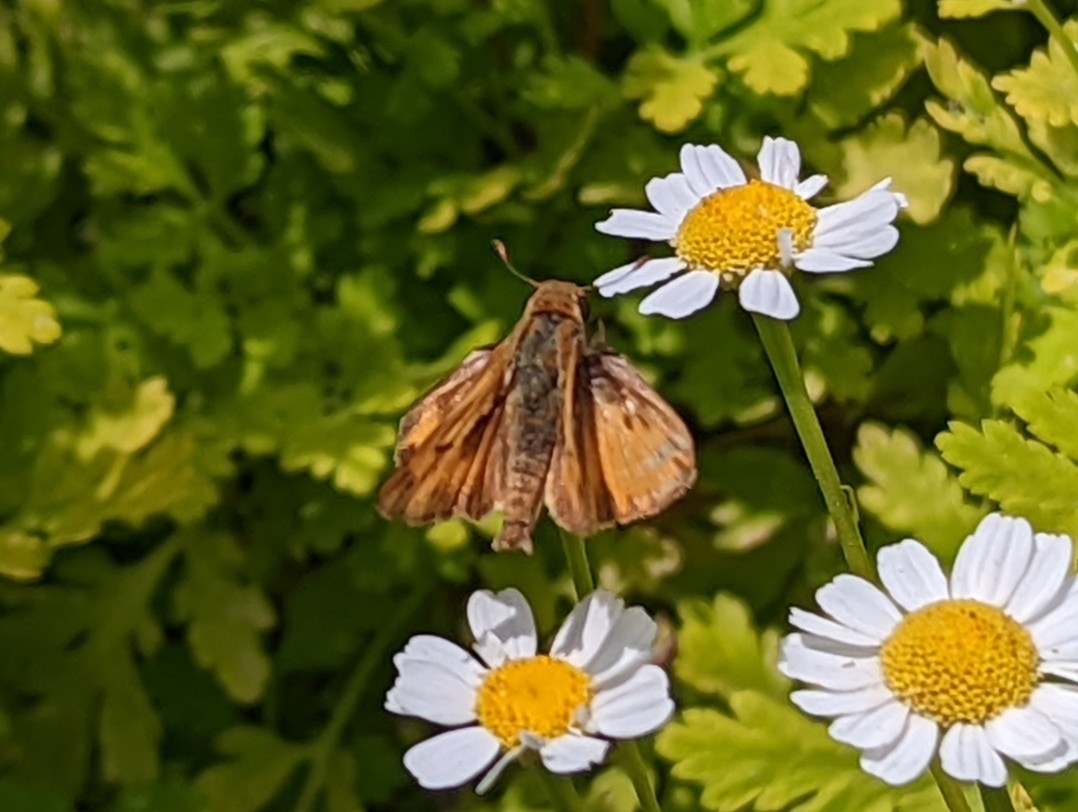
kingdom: Animalia
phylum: Arthropoda
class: Insecta
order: Lepidoptera
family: Hesperiidae
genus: Hylephila
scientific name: Hylephila phyleus
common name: Fiery skipper
